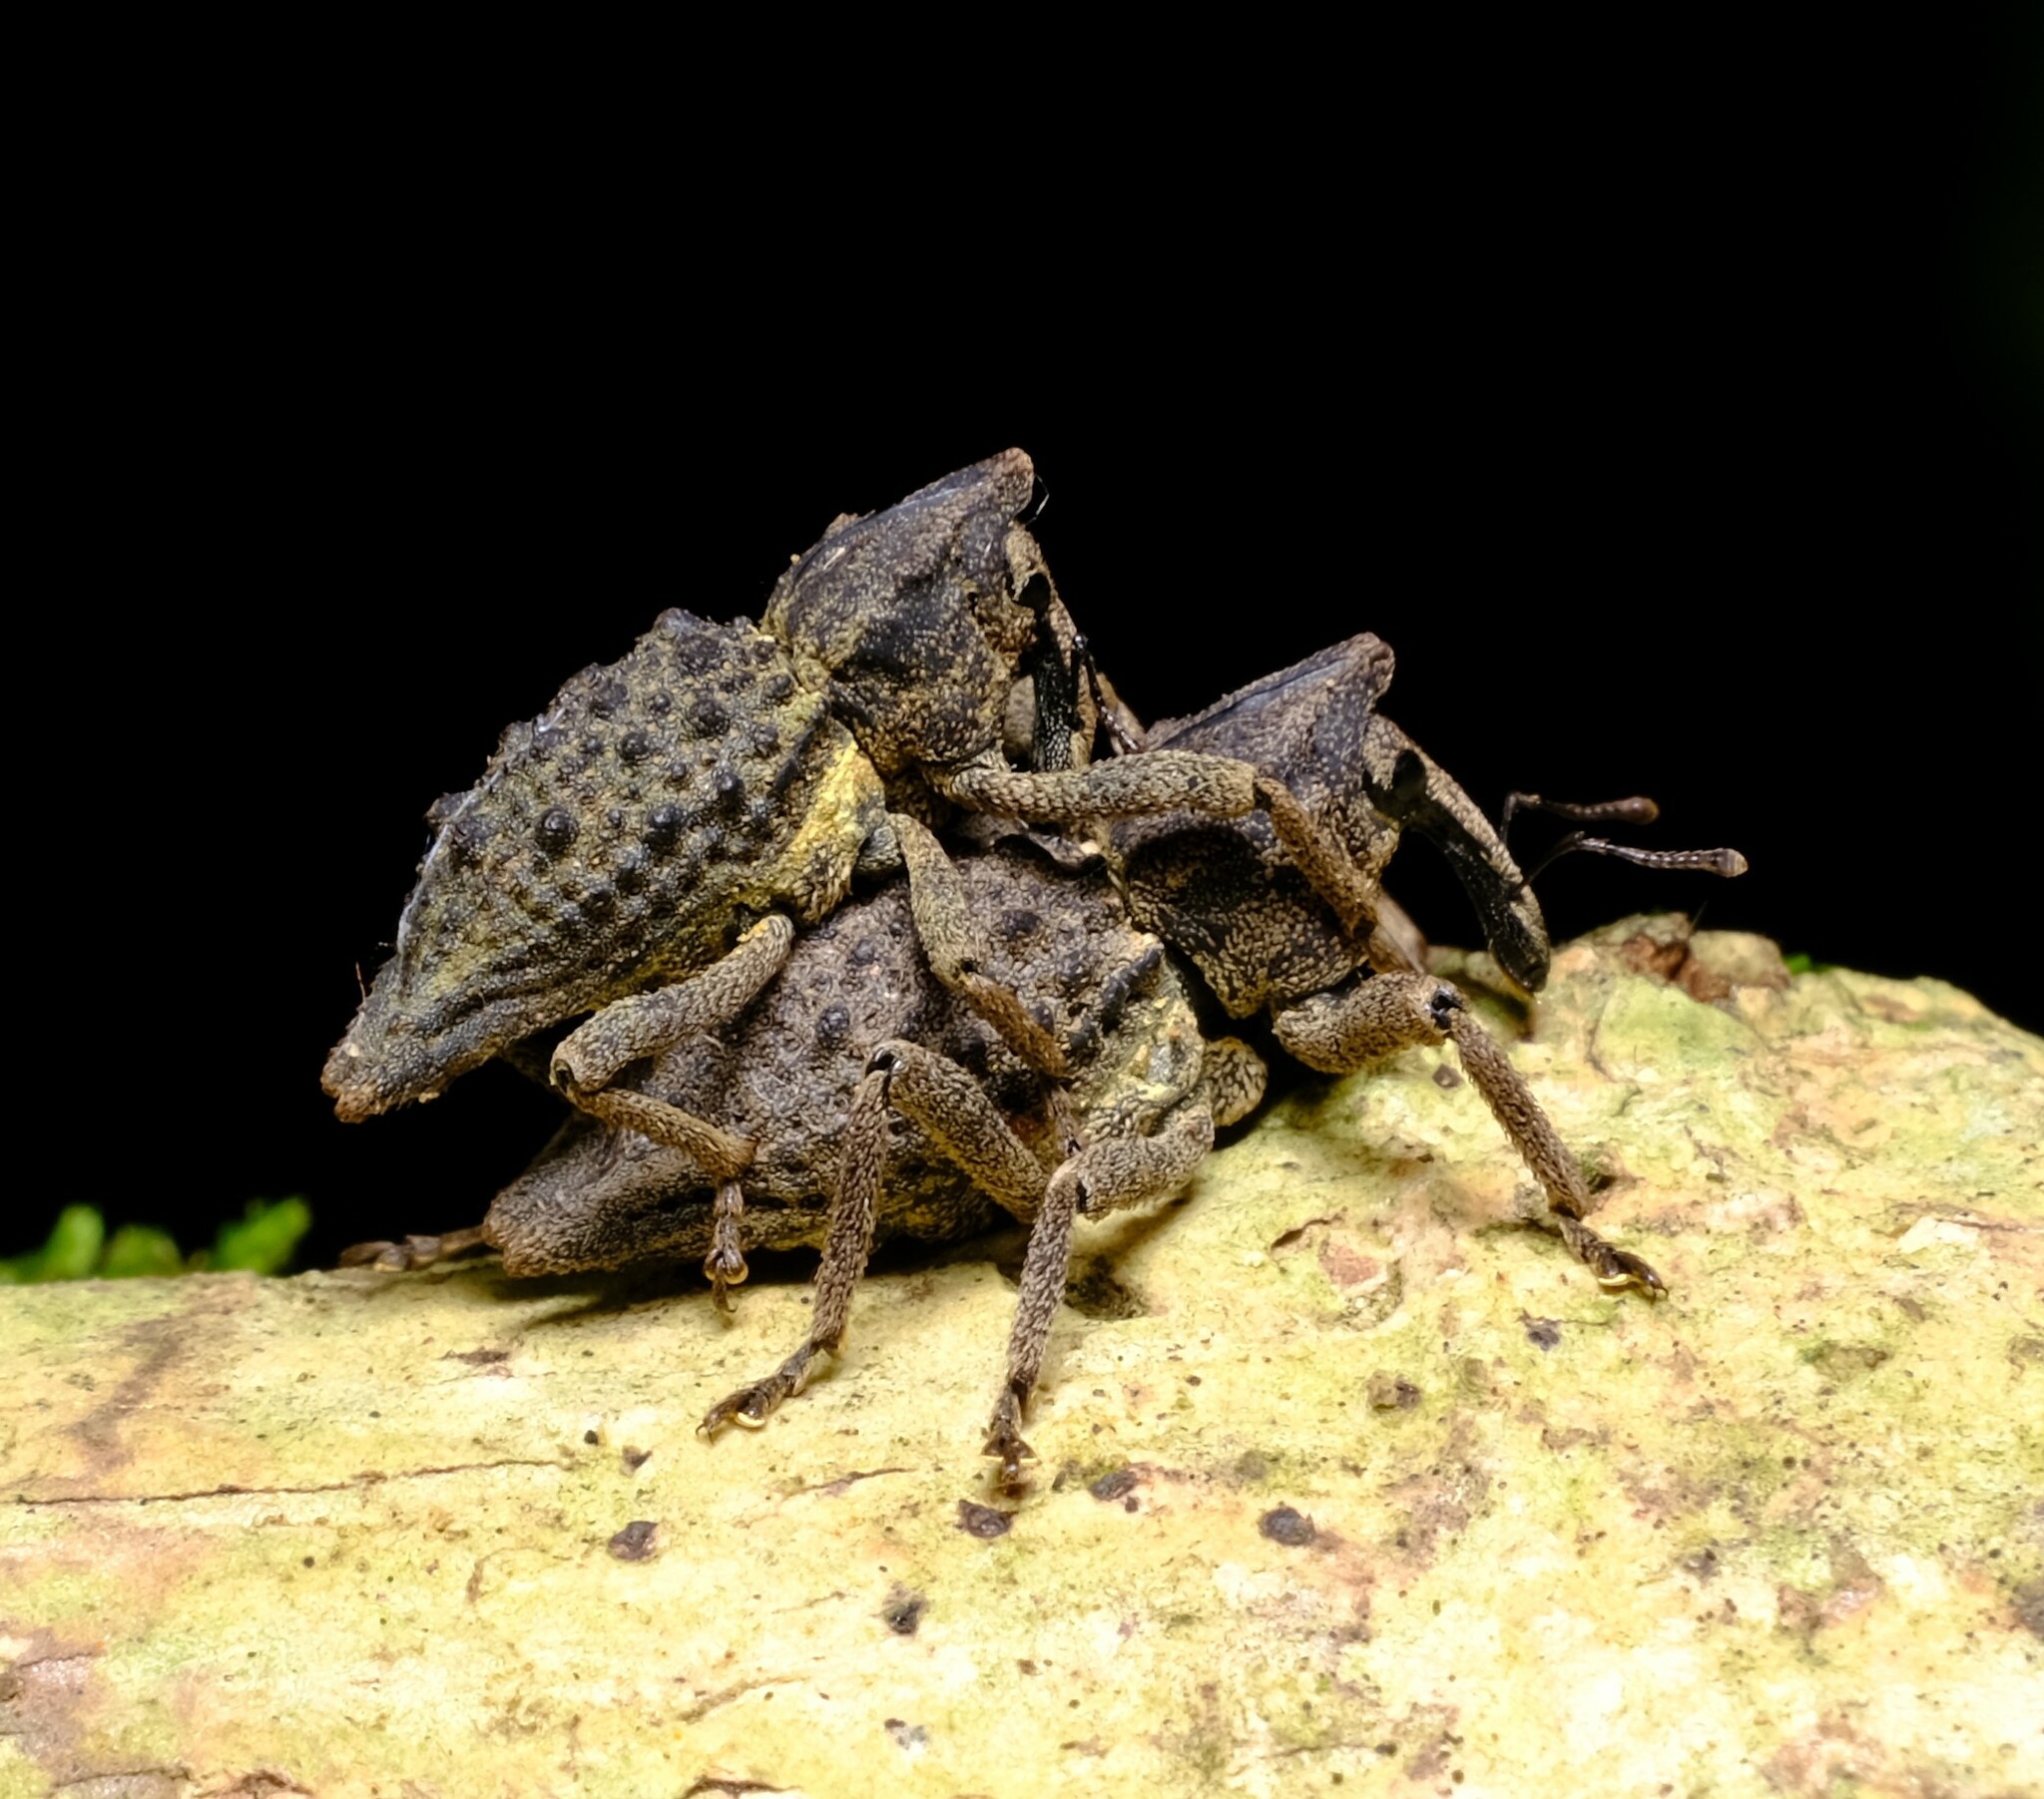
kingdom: Animalia
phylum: Arthropoda
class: Insecta
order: Coleoptera
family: Curculionidae
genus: Poropterus
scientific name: Poropterus ellipticus
